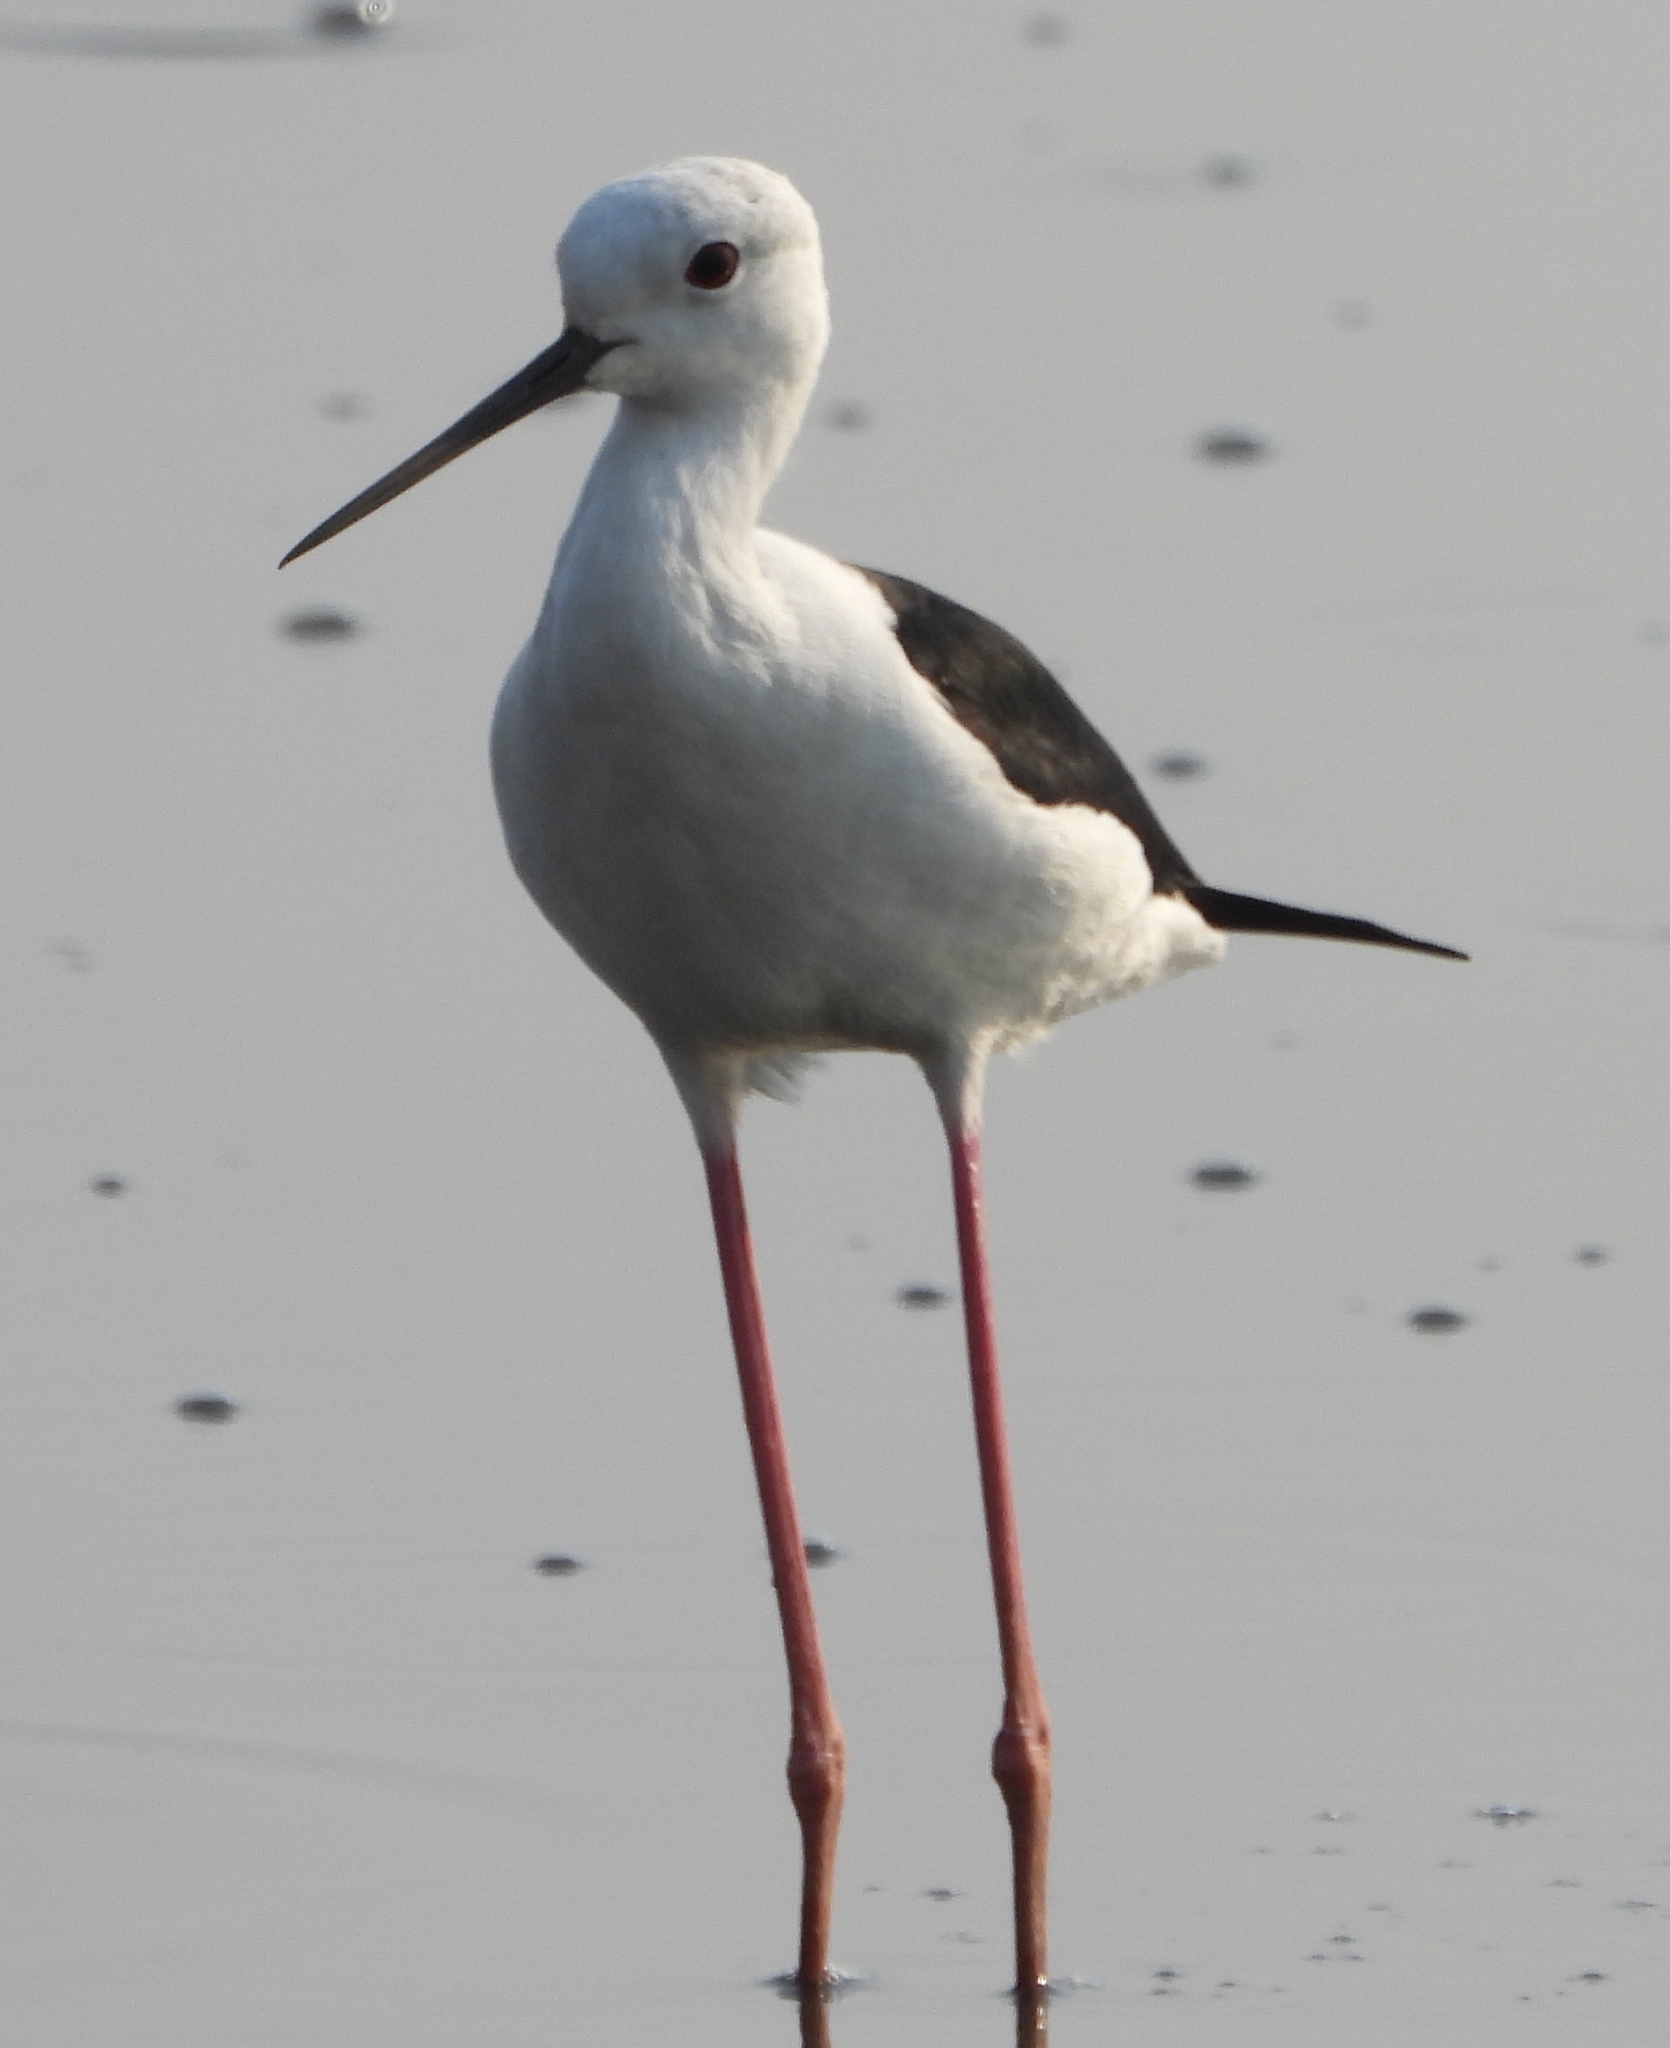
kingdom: Animalia
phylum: Chordata
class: Aves
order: Charadriiformes
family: Recurvirostridae
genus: Himantopus
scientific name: Himantopus himantopus
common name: Black-winged stilt
